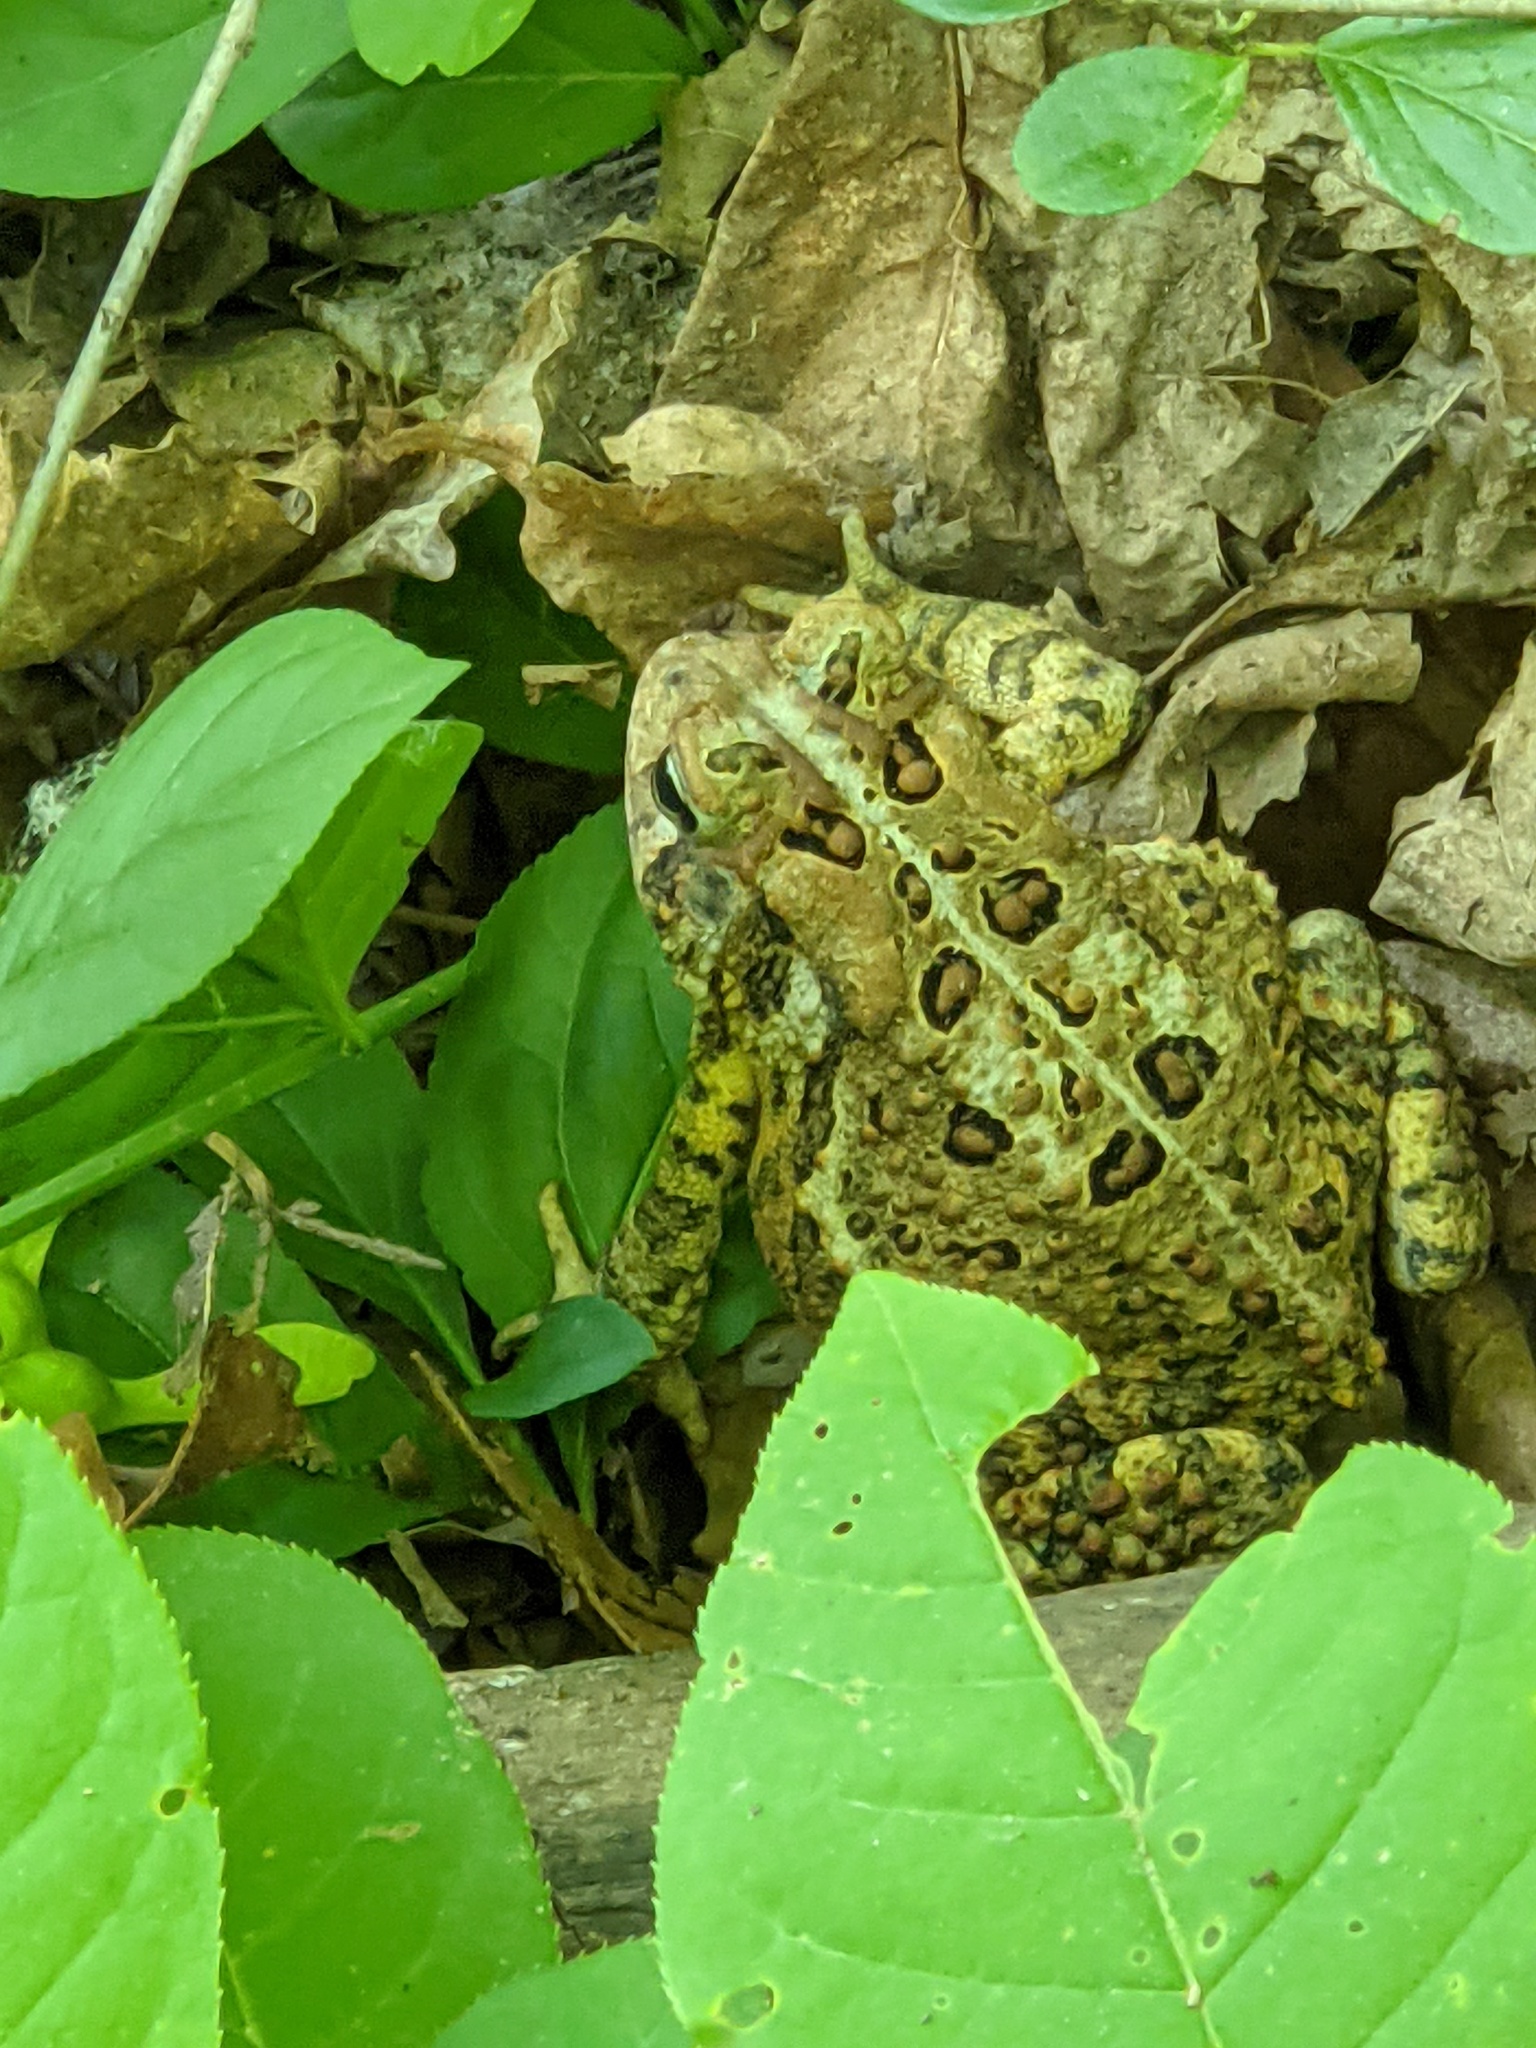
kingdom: Animalia
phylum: Chordata
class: Amphibia
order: Anura
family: Bufonidae
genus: Anaxyrus
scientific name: Anaxyrus americanus
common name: American toad
